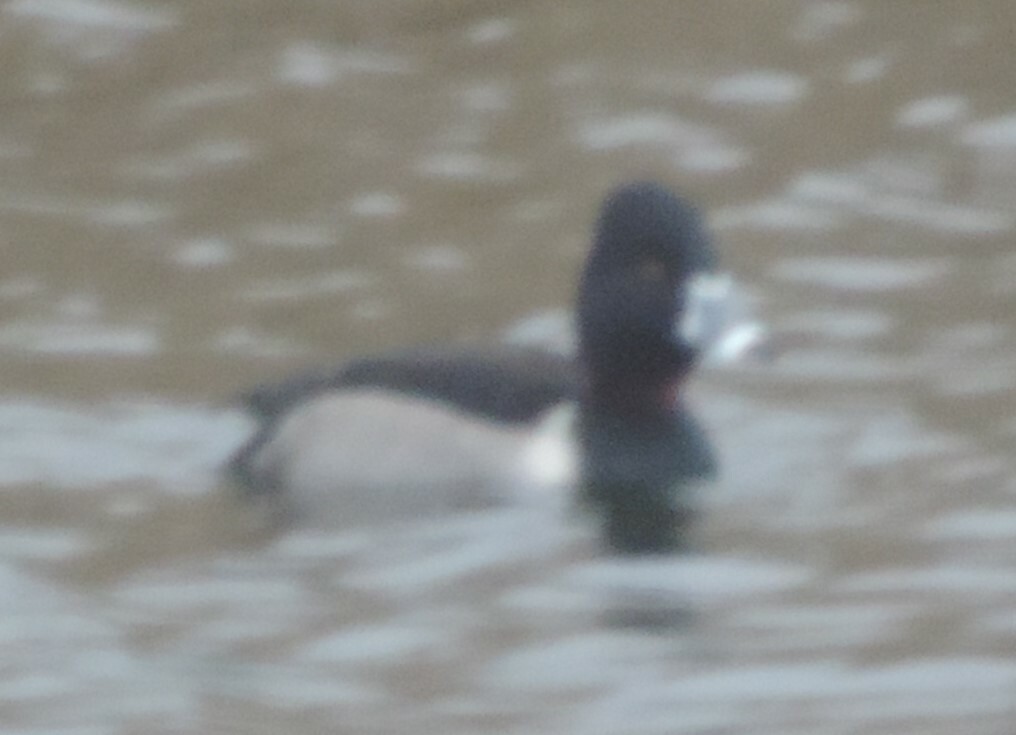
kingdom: Animalia
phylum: Chordata
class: Aves
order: Anseriformes
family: Anatidae
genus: Aythya
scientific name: Aythya collaris
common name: Ring-necked duck
